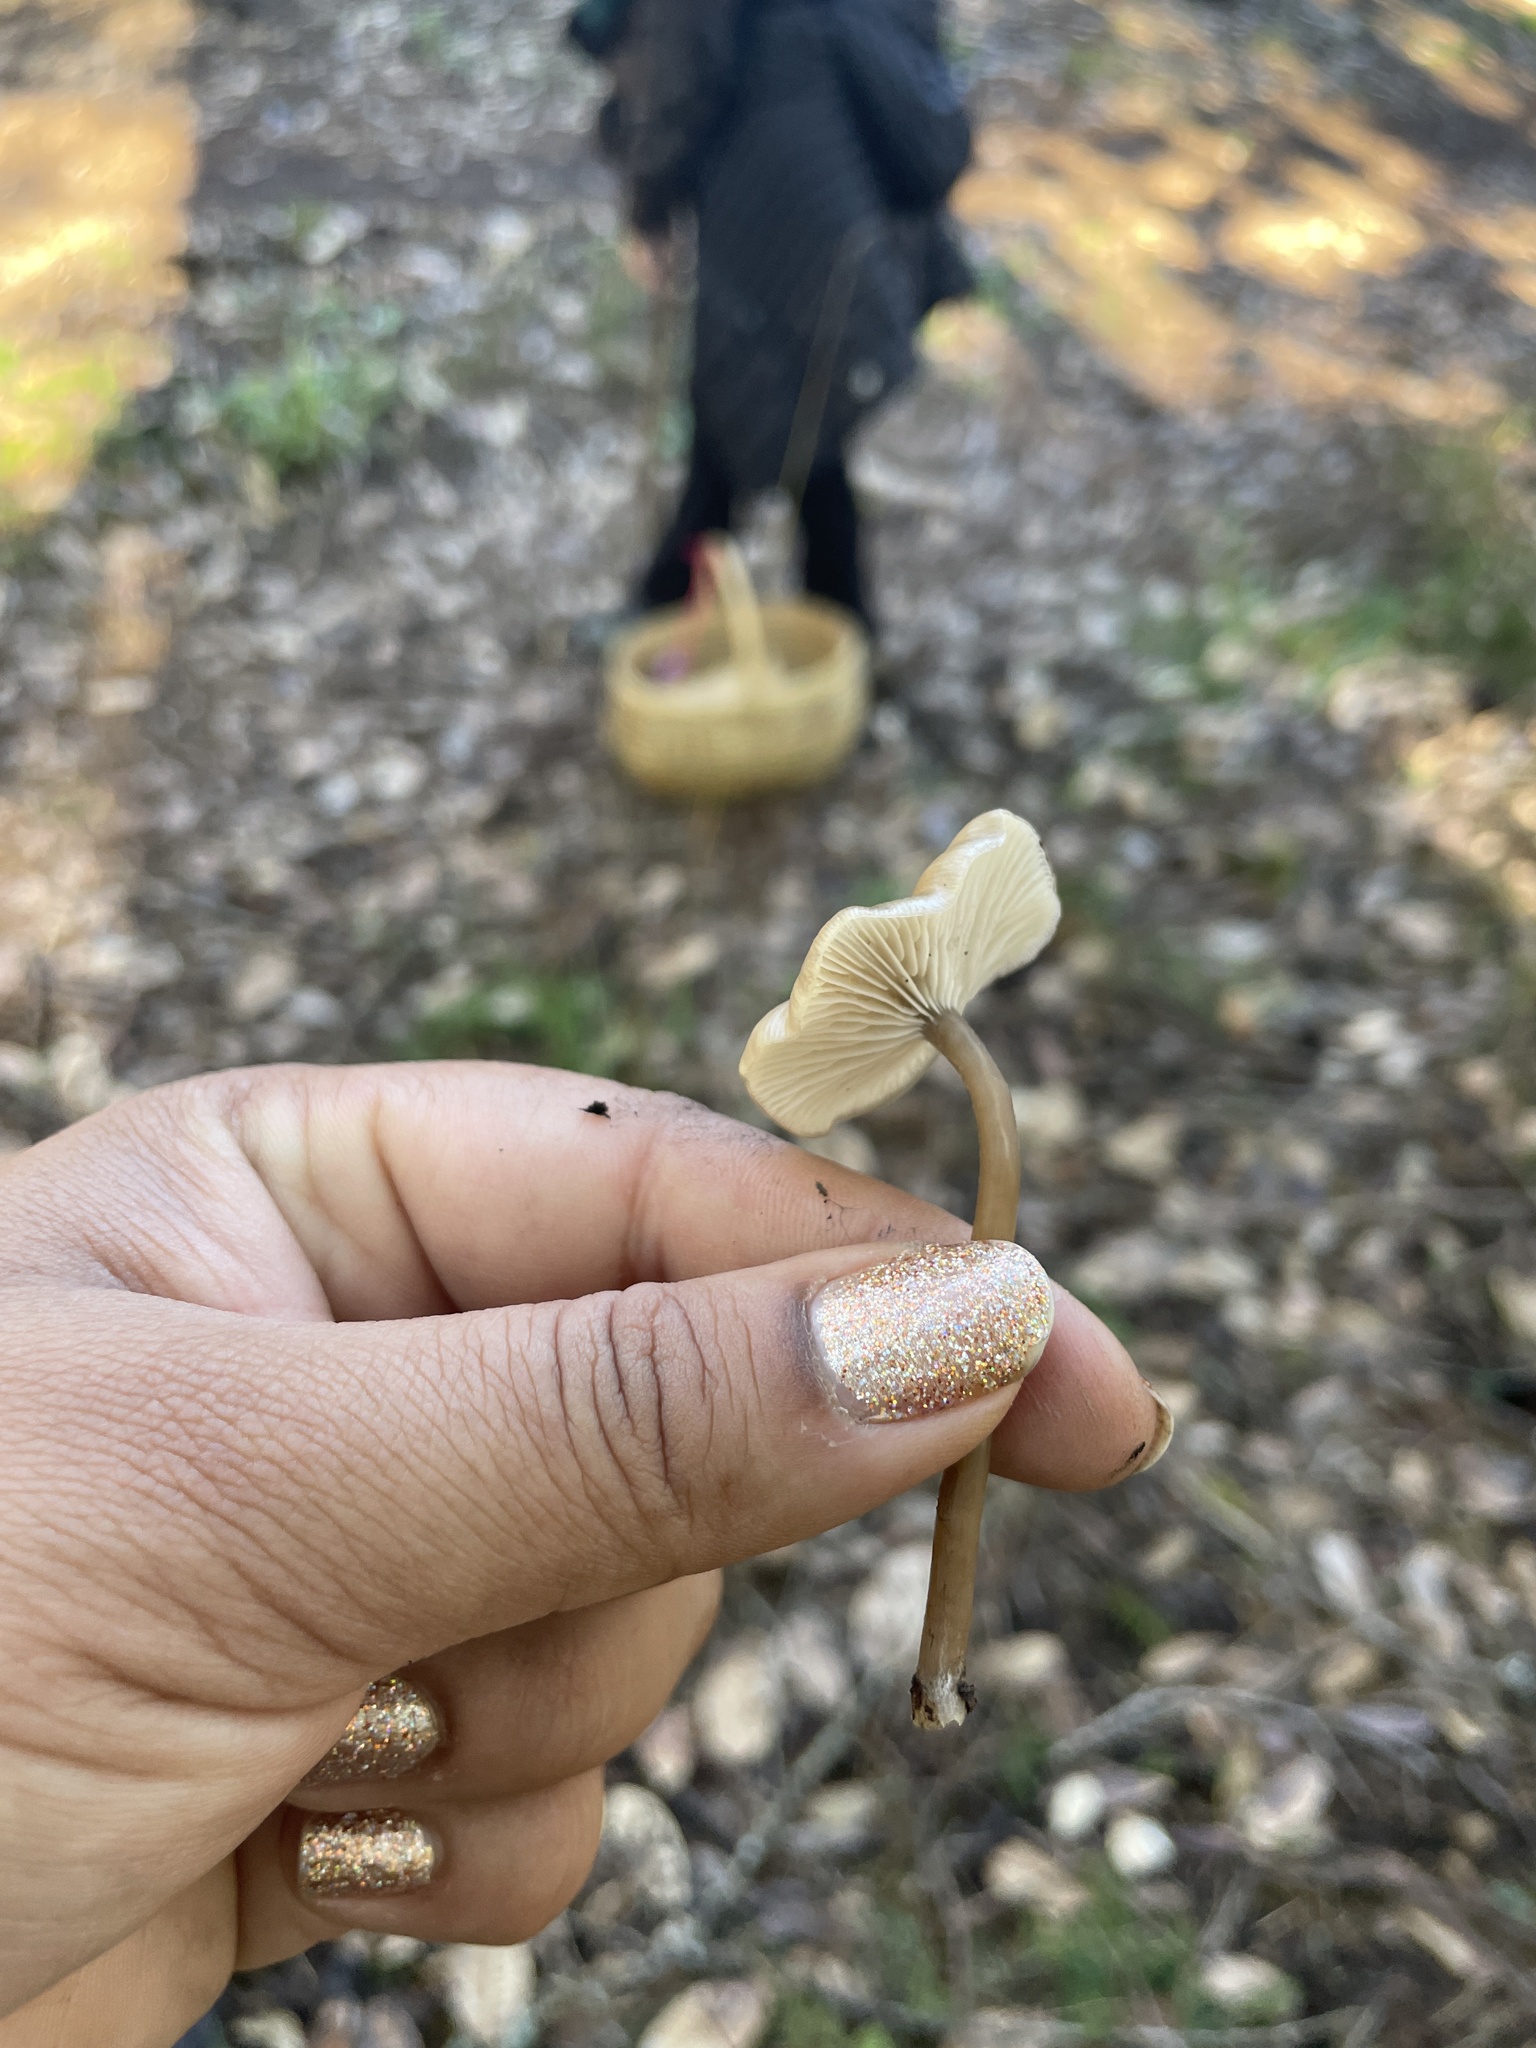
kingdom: Fungi
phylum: Basidiomycota
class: Agaricomycetes
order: Agaricales
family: Tricholomataceae
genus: Myxomphalia
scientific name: Myxomphalia maura
